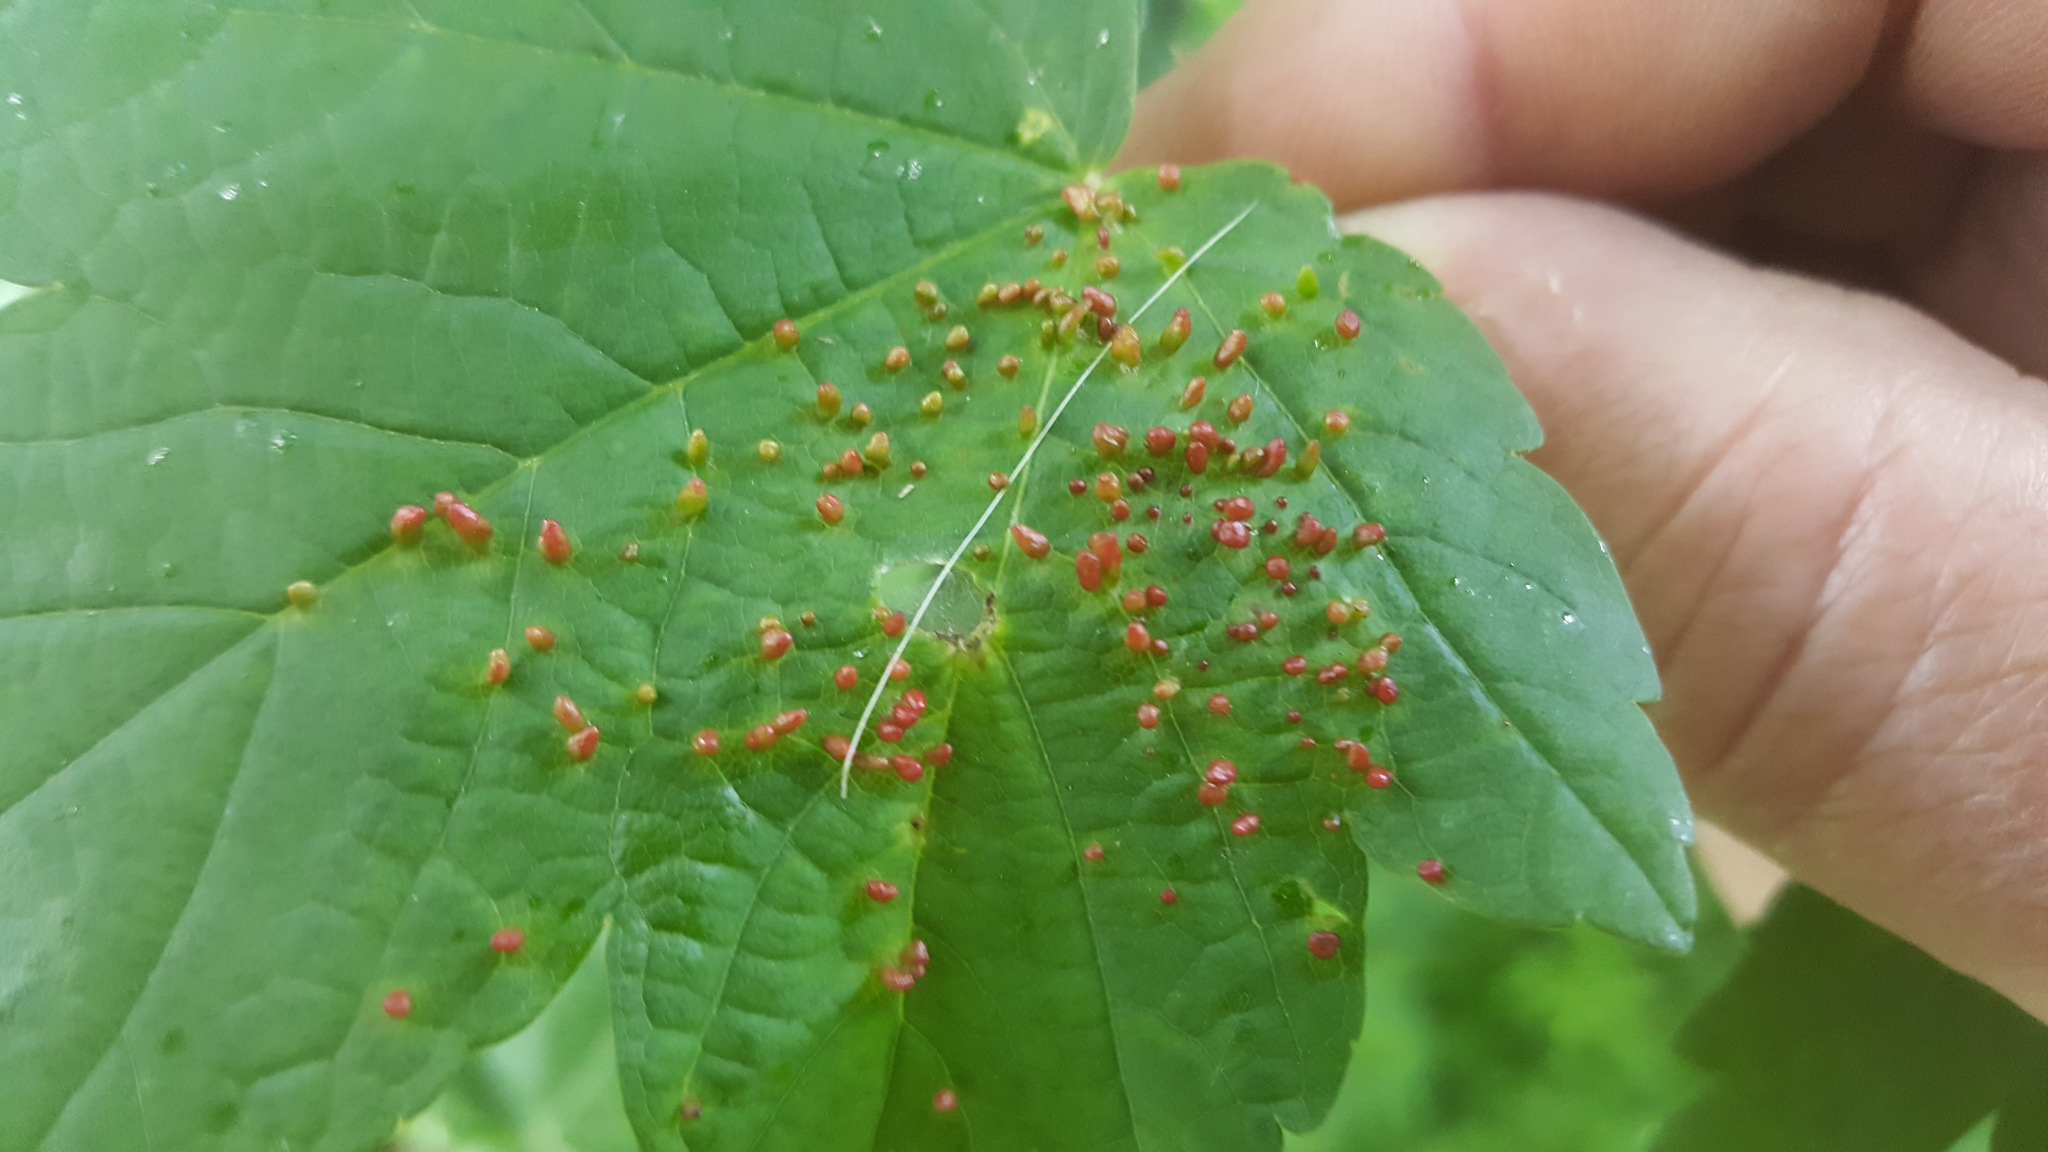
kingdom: Animalia
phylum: Arthropoda
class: Arachnida
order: Trombidiformes
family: Eriophyidae
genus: Aceria
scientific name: Aceria myriadeum
